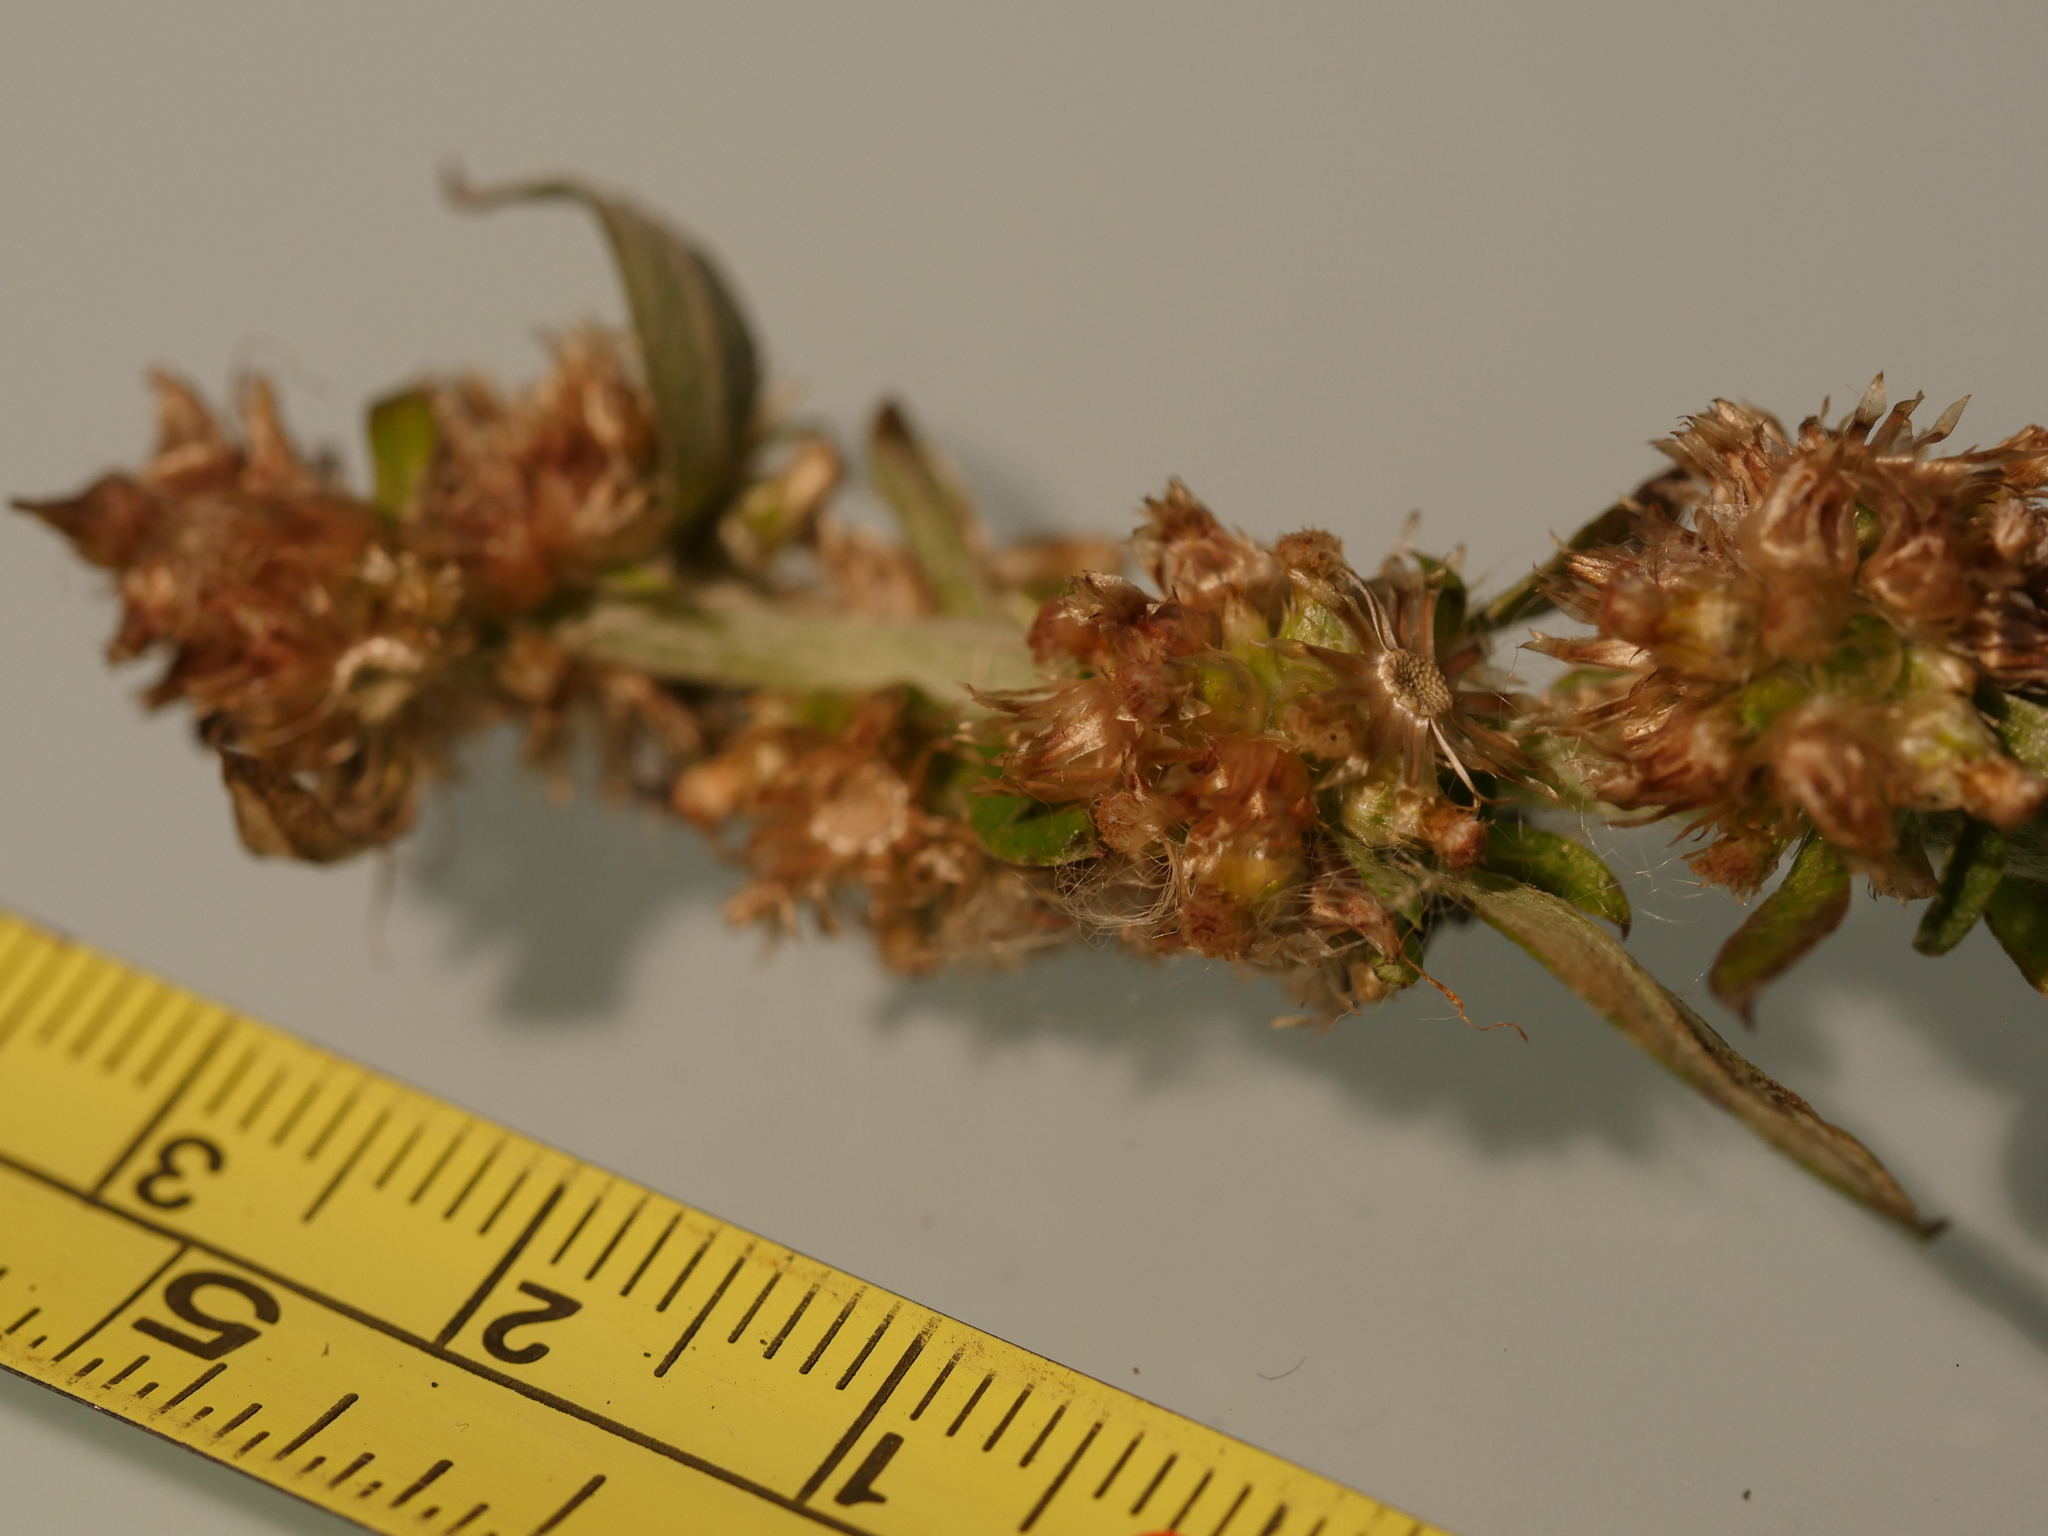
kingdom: Plantae
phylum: Tracheophyta
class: Magnoliopsida
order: Asterales
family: Asteraceae
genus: Gamochaeta
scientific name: Gamochaeta simplicicaulis
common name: Simple-stem everlasting
